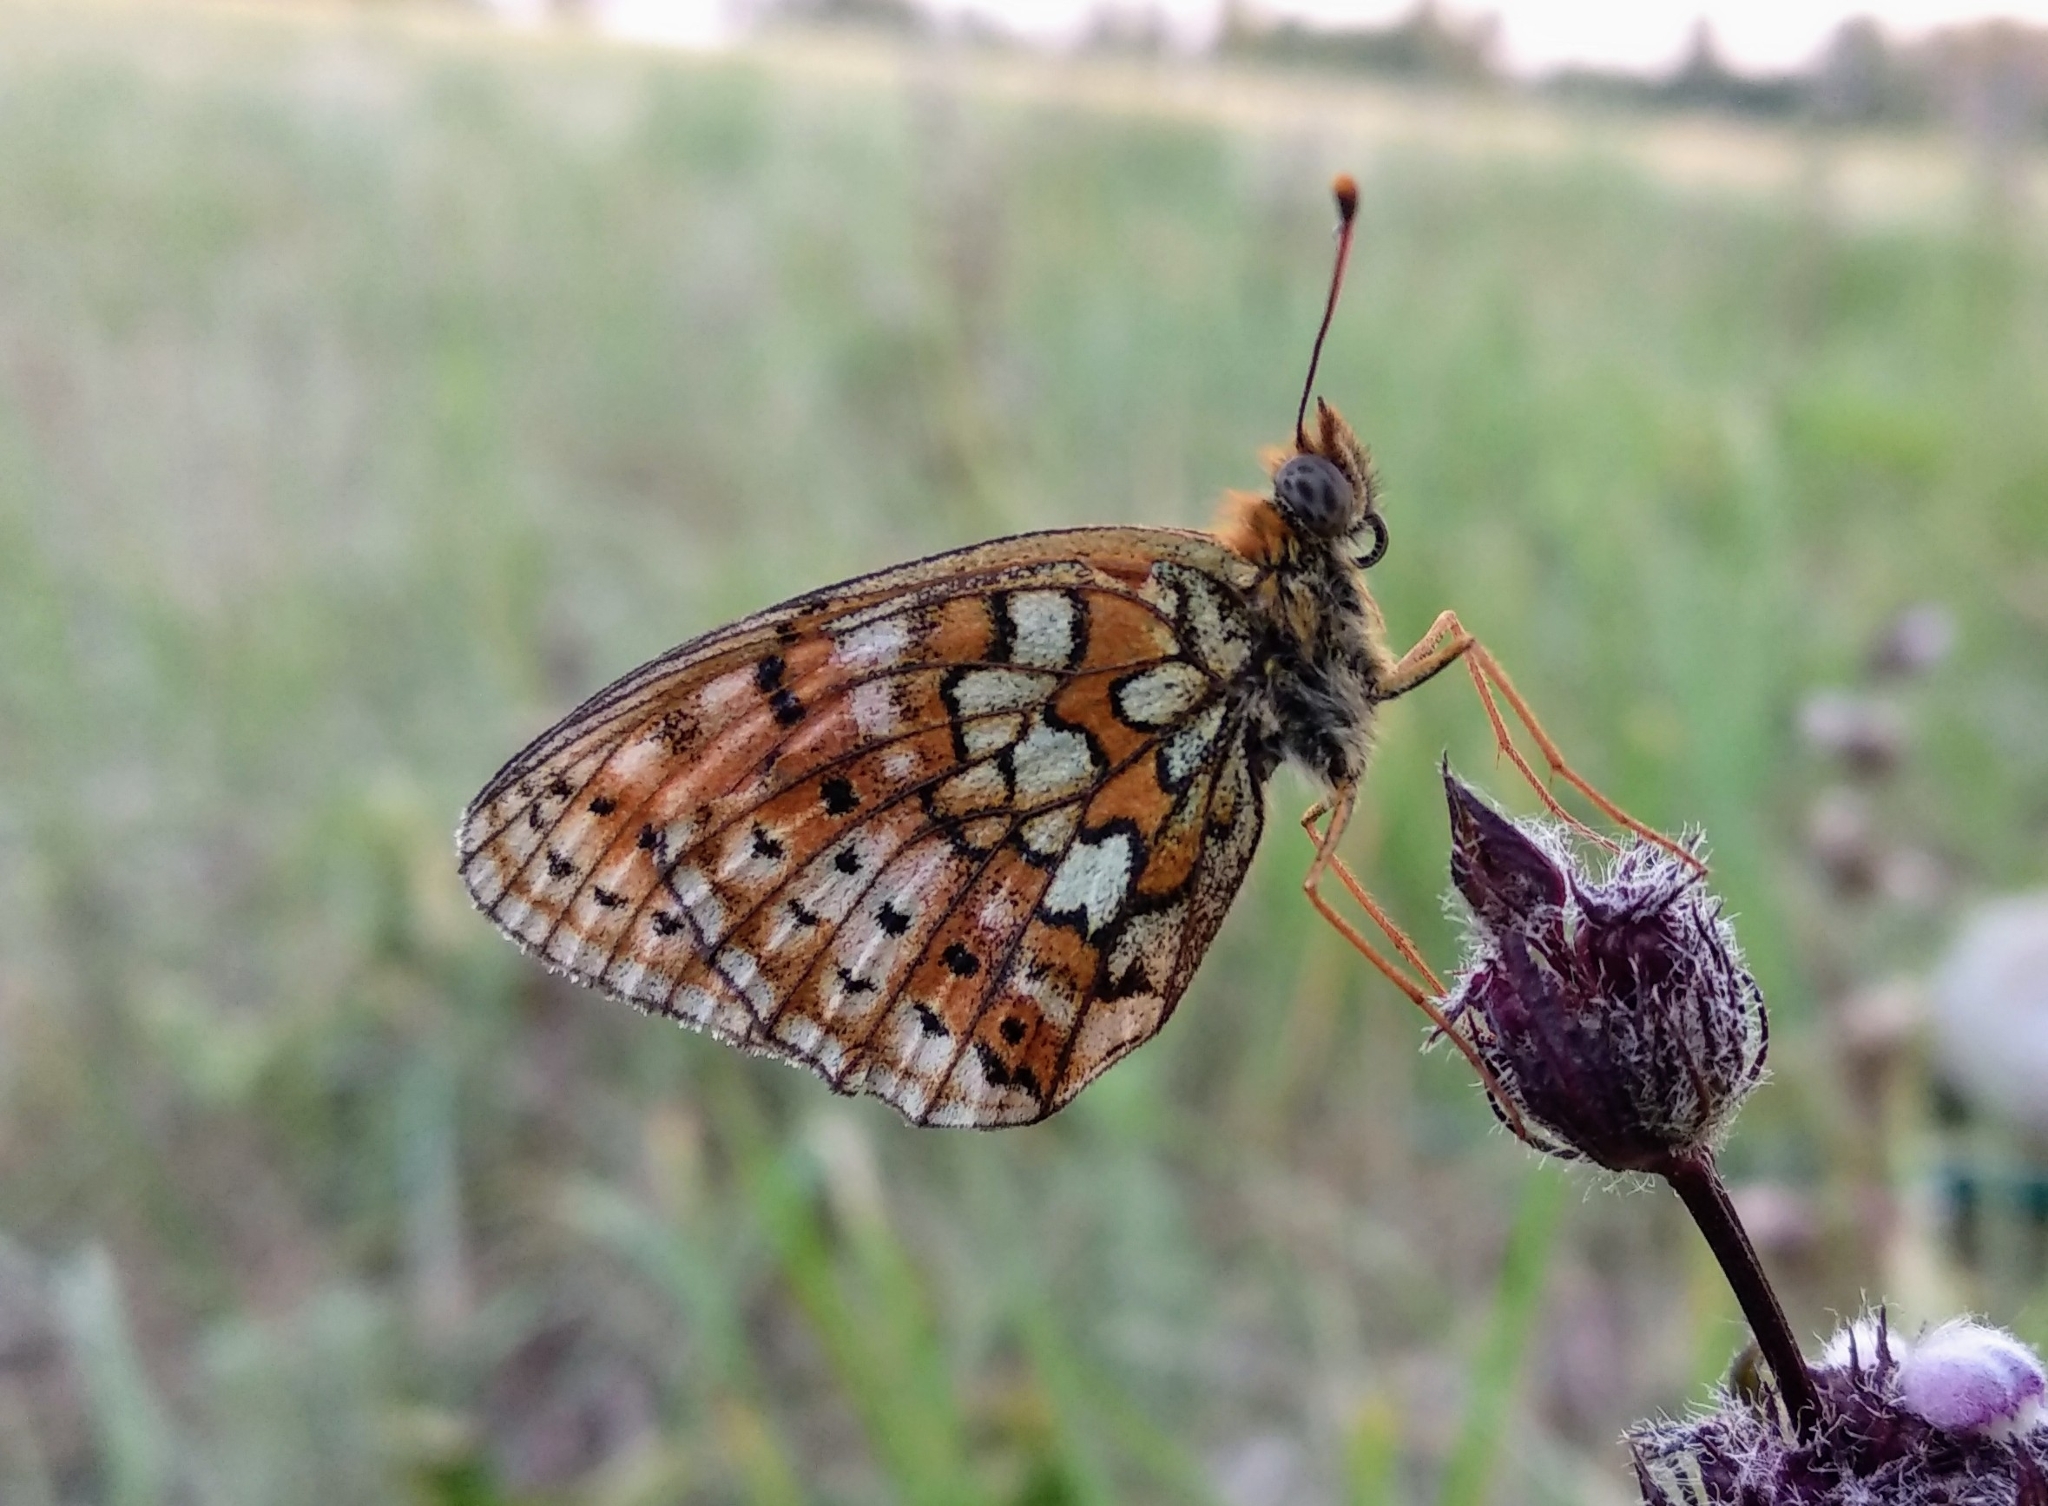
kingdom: Animalia
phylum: Arthropoda
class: Insecta
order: Lepidoptera
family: Nymphalidae
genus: Brenthis
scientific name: Brenthis hecate
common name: Twin-spot fritillary
